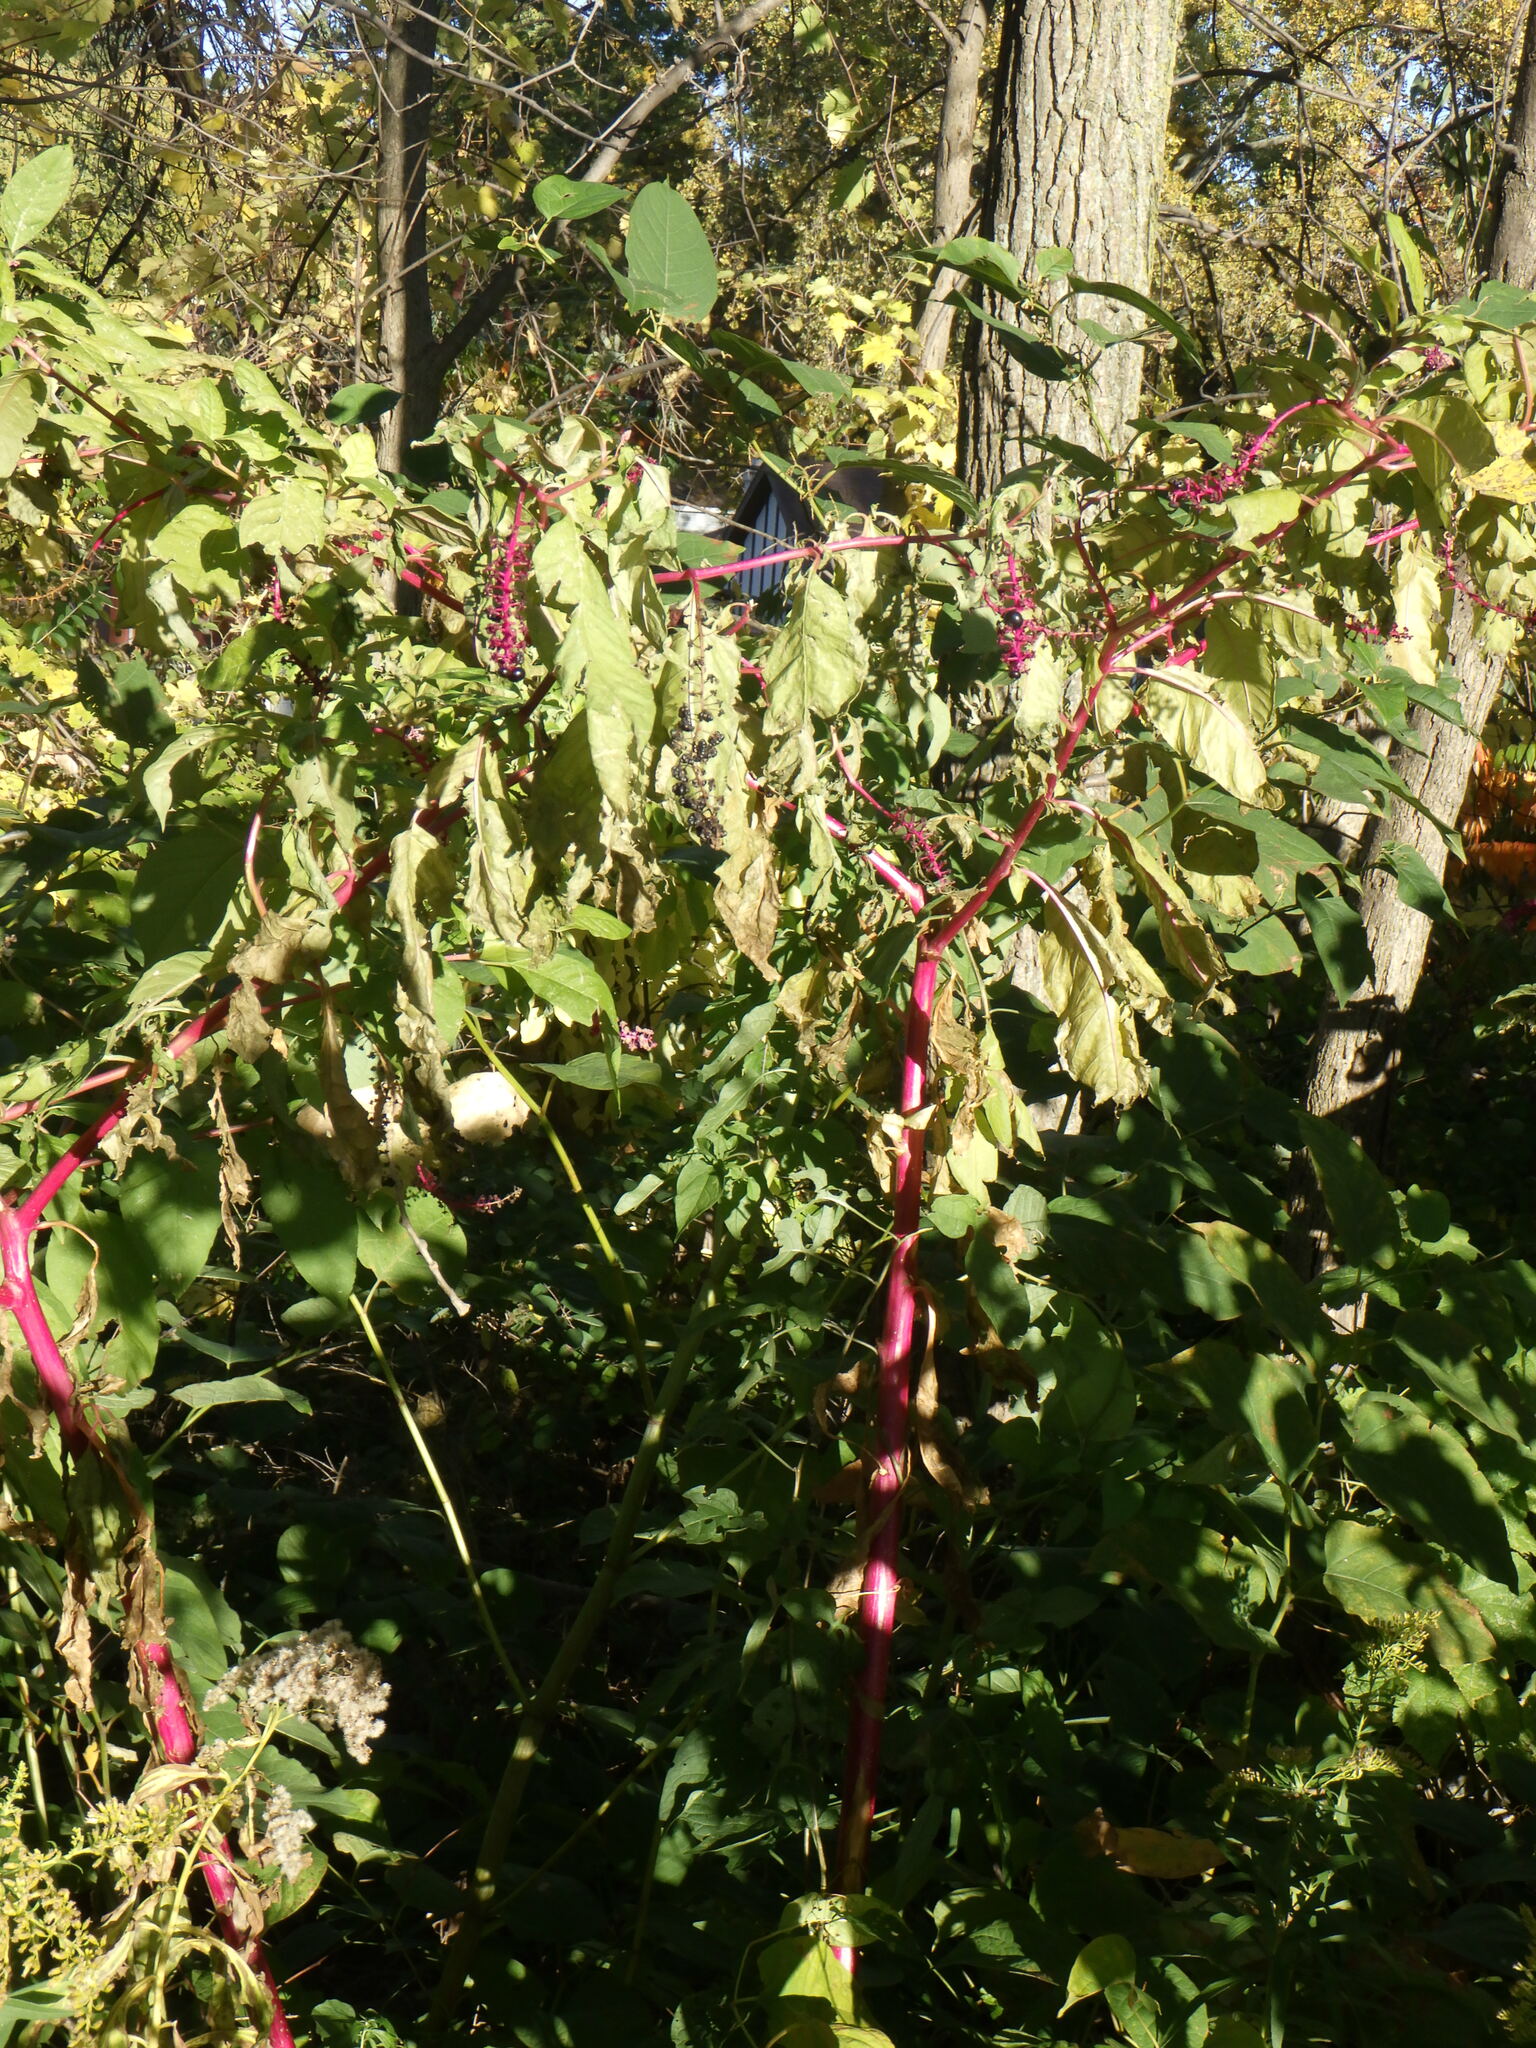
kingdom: Plantae
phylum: Tracheophyta
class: Magnoliopsida
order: Caryophyllales
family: Phytolaccaceae
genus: Phytolacca
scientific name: Phytolacca americana
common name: American pokeweed
